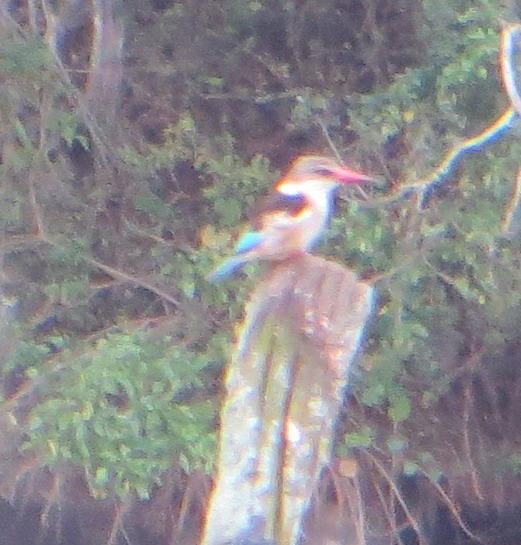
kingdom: Animalia
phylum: Chordata
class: Aves
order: Coraciiformes
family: Alcedinidae
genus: Halcyon
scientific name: Halcyon albiventris
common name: Brown-hooded kingfisher
